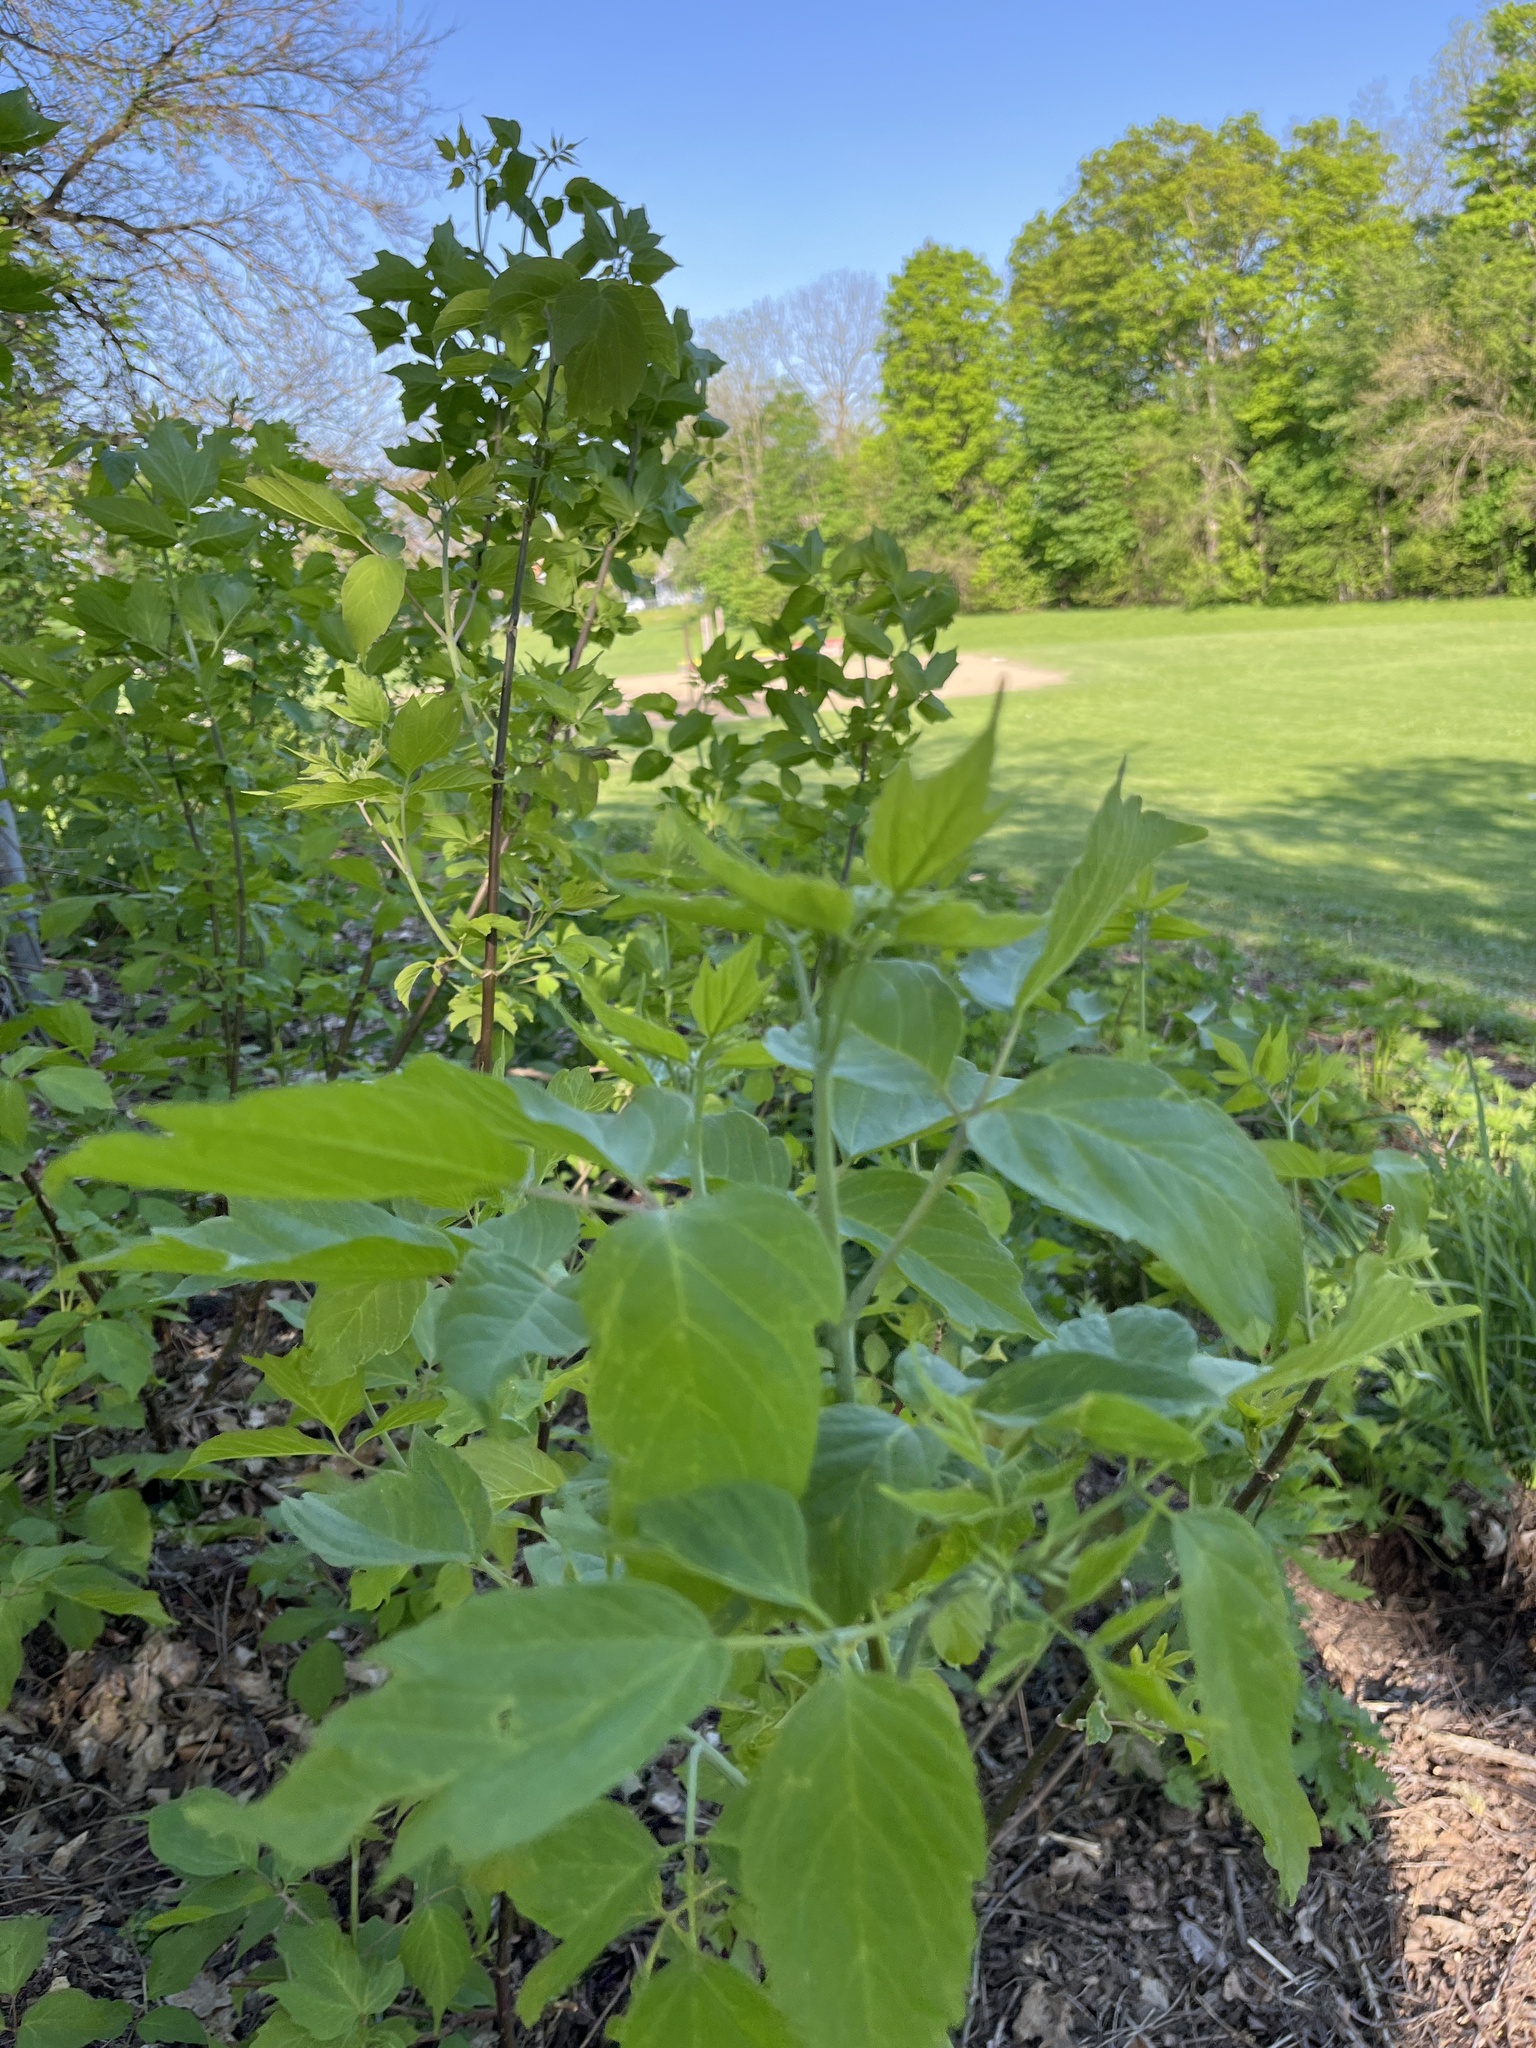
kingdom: Plantae
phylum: Tracheophyta
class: Magnoliopsida
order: Sapindales
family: Sapindaceae
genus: Acer
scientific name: Acer negundo
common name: Ashleaf maple
